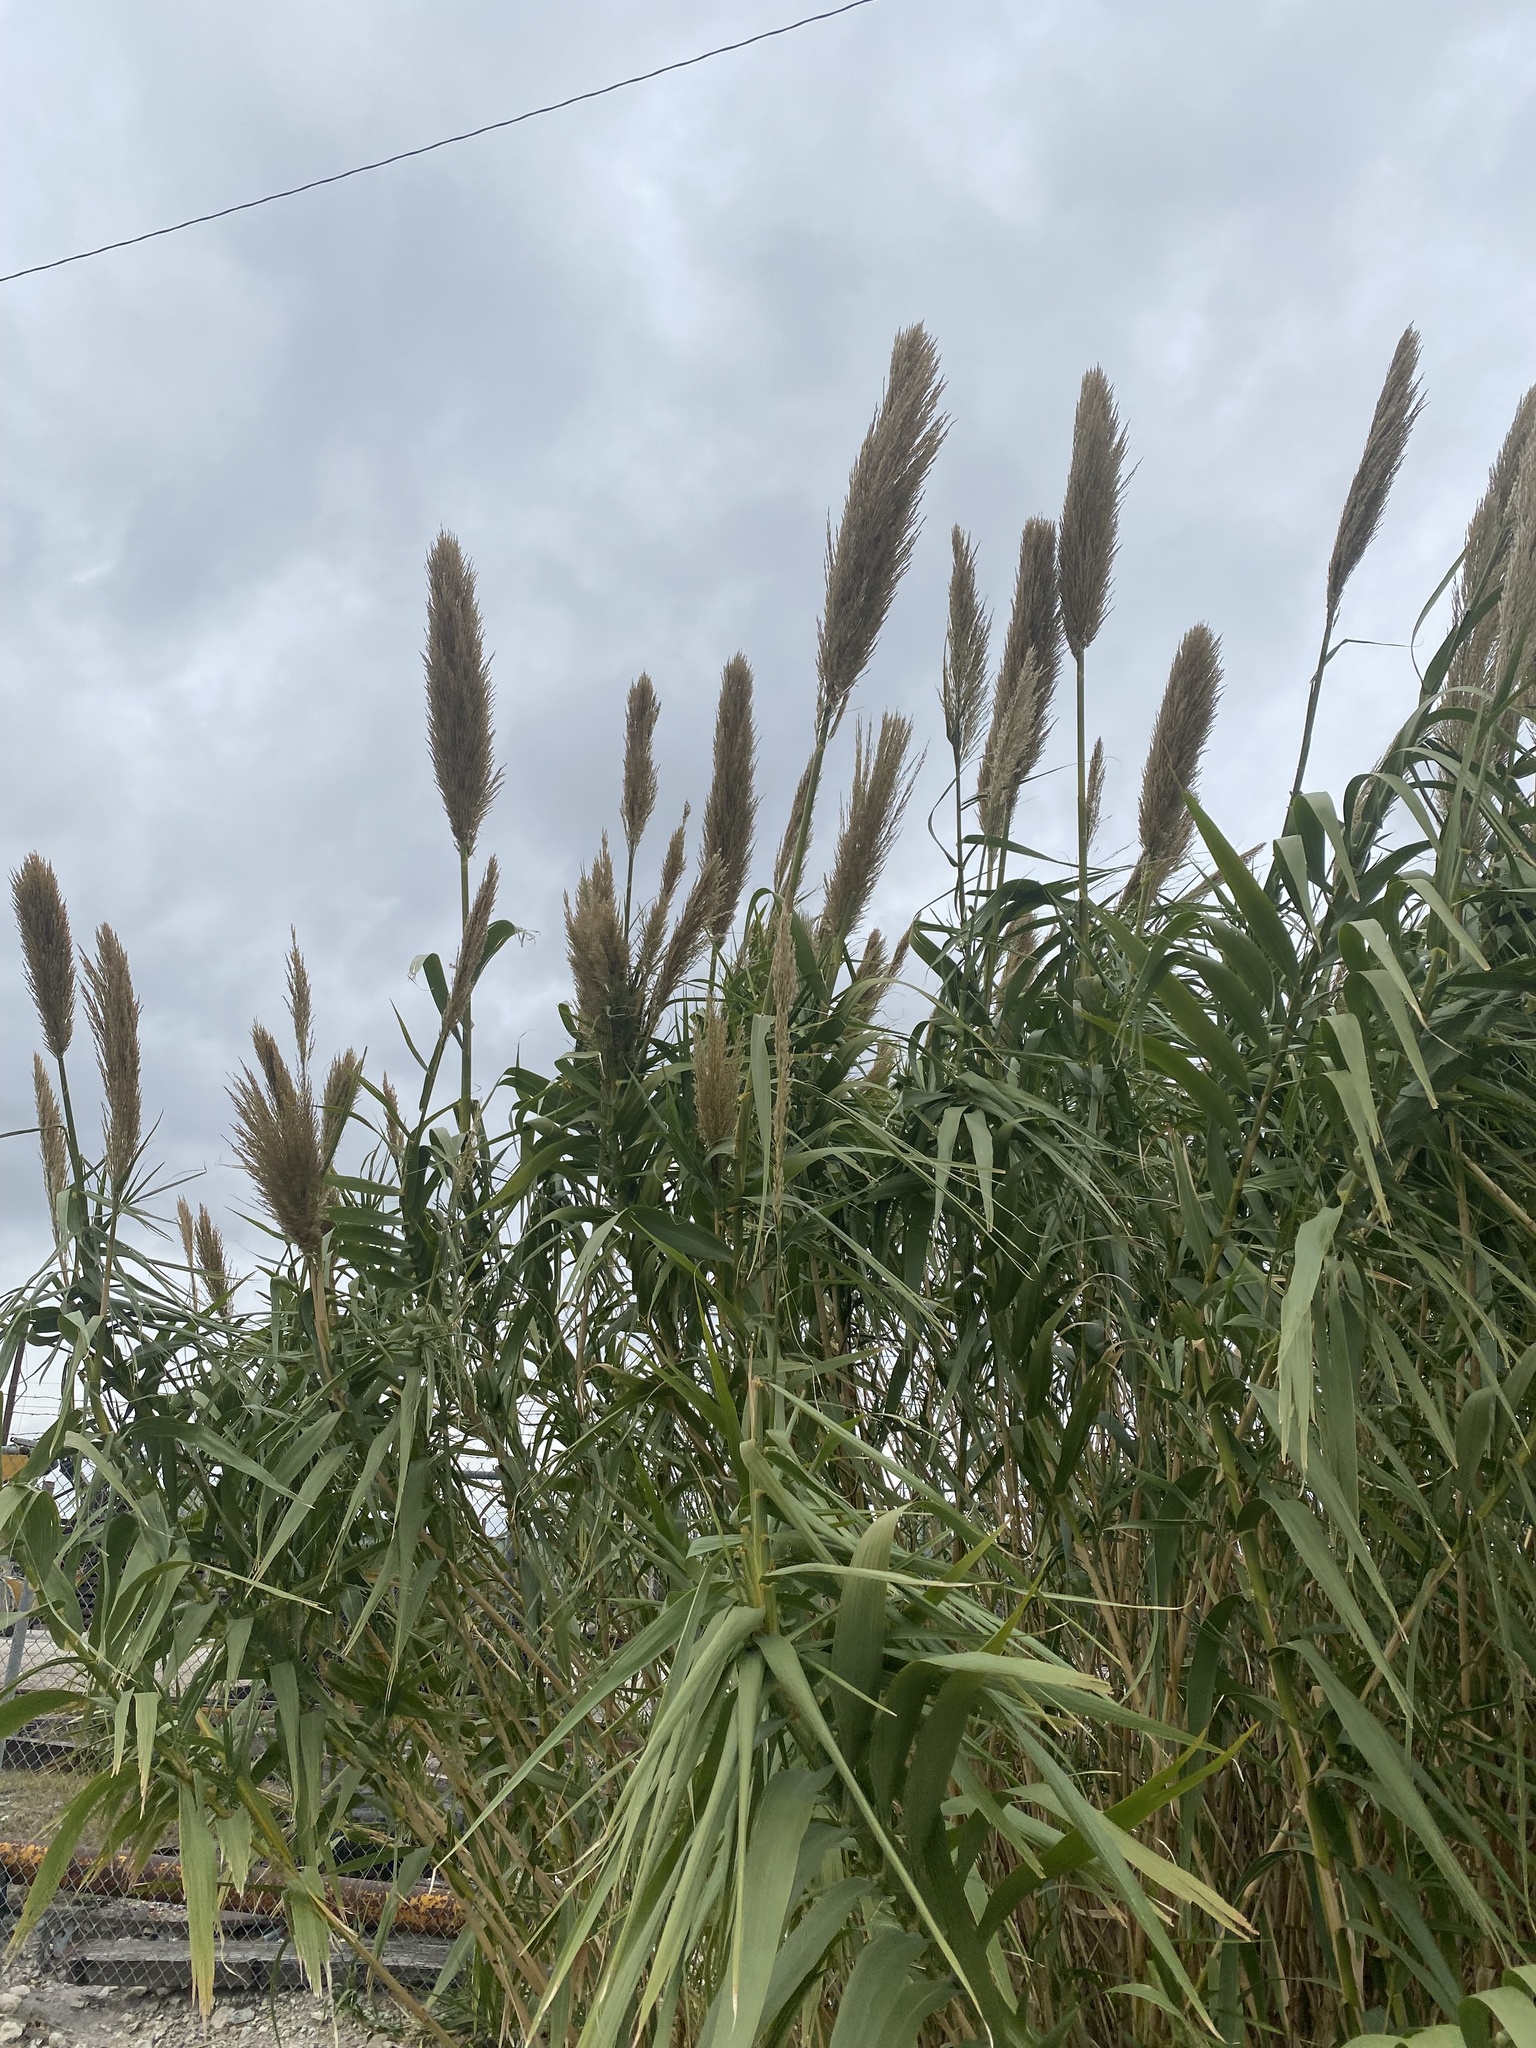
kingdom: Plantae
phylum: Tracheophyta
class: Liliopsida
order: Poales
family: Poaceae
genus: Arundo
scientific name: Arundo donax
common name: Giant reed
